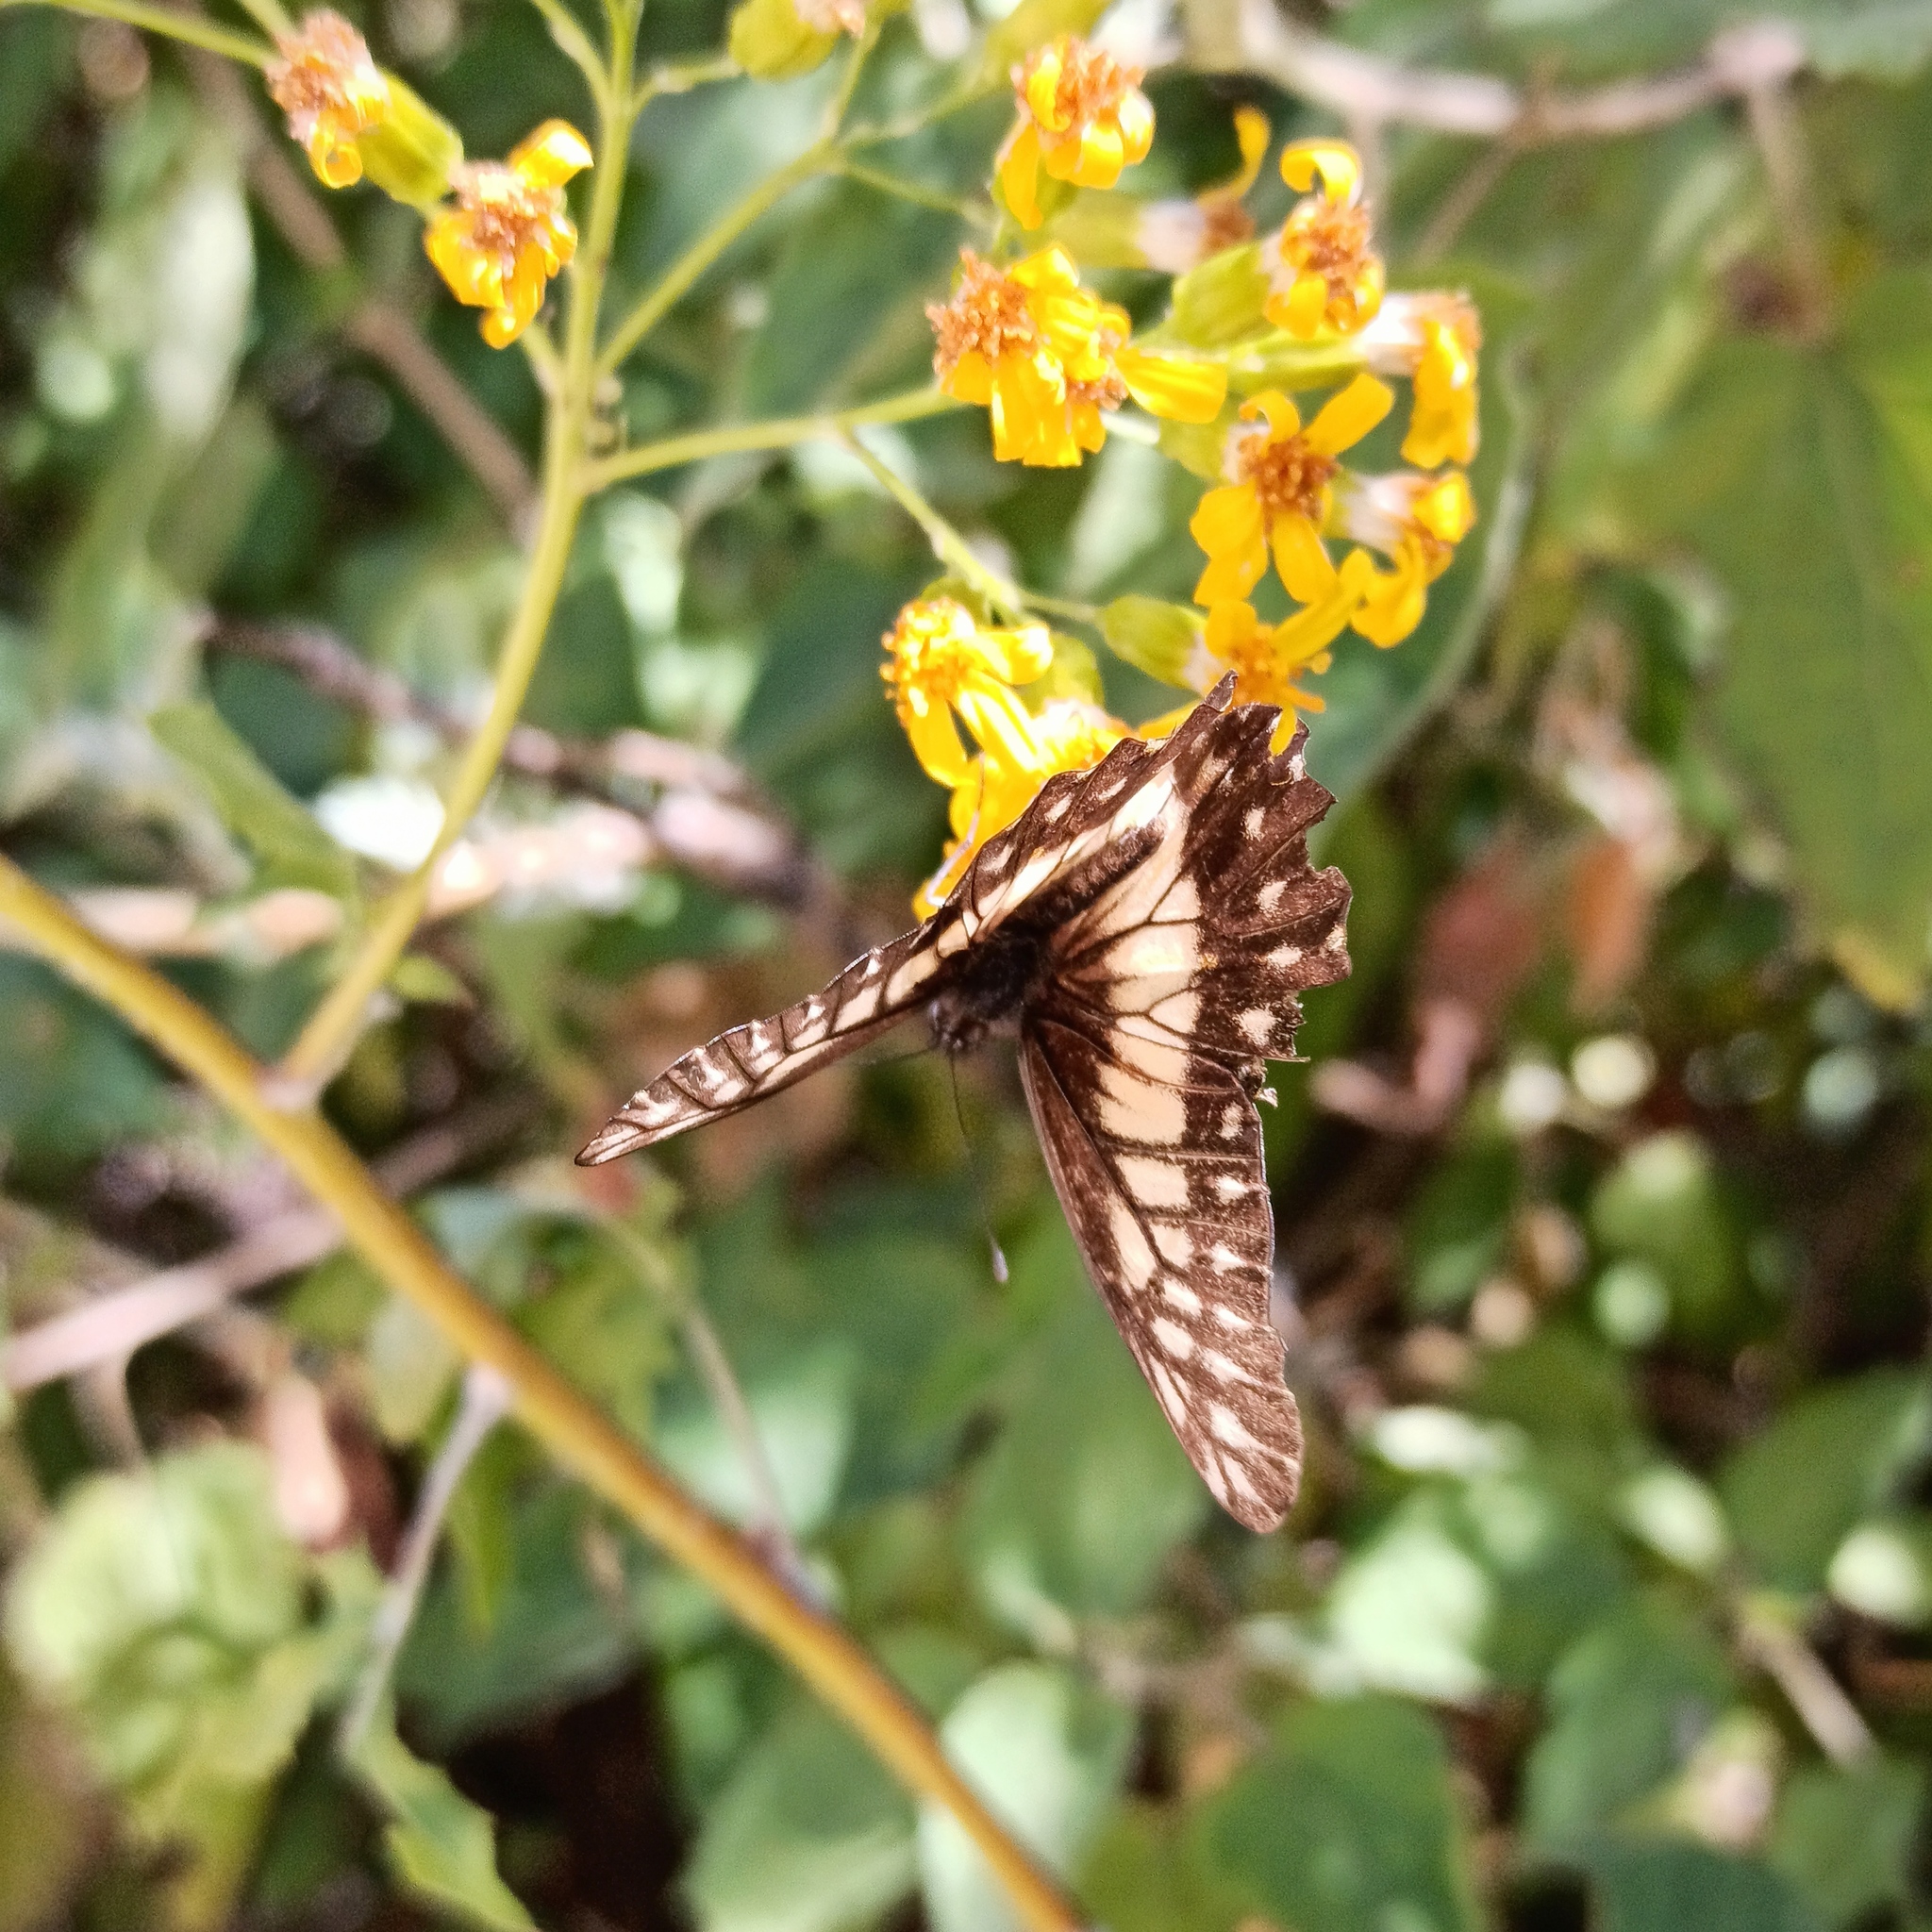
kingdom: Animalia
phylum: Arthropoda
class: Insecta
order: Lepidoptera
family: Pieridae
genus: Archonias
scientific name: Archonias nimbice
